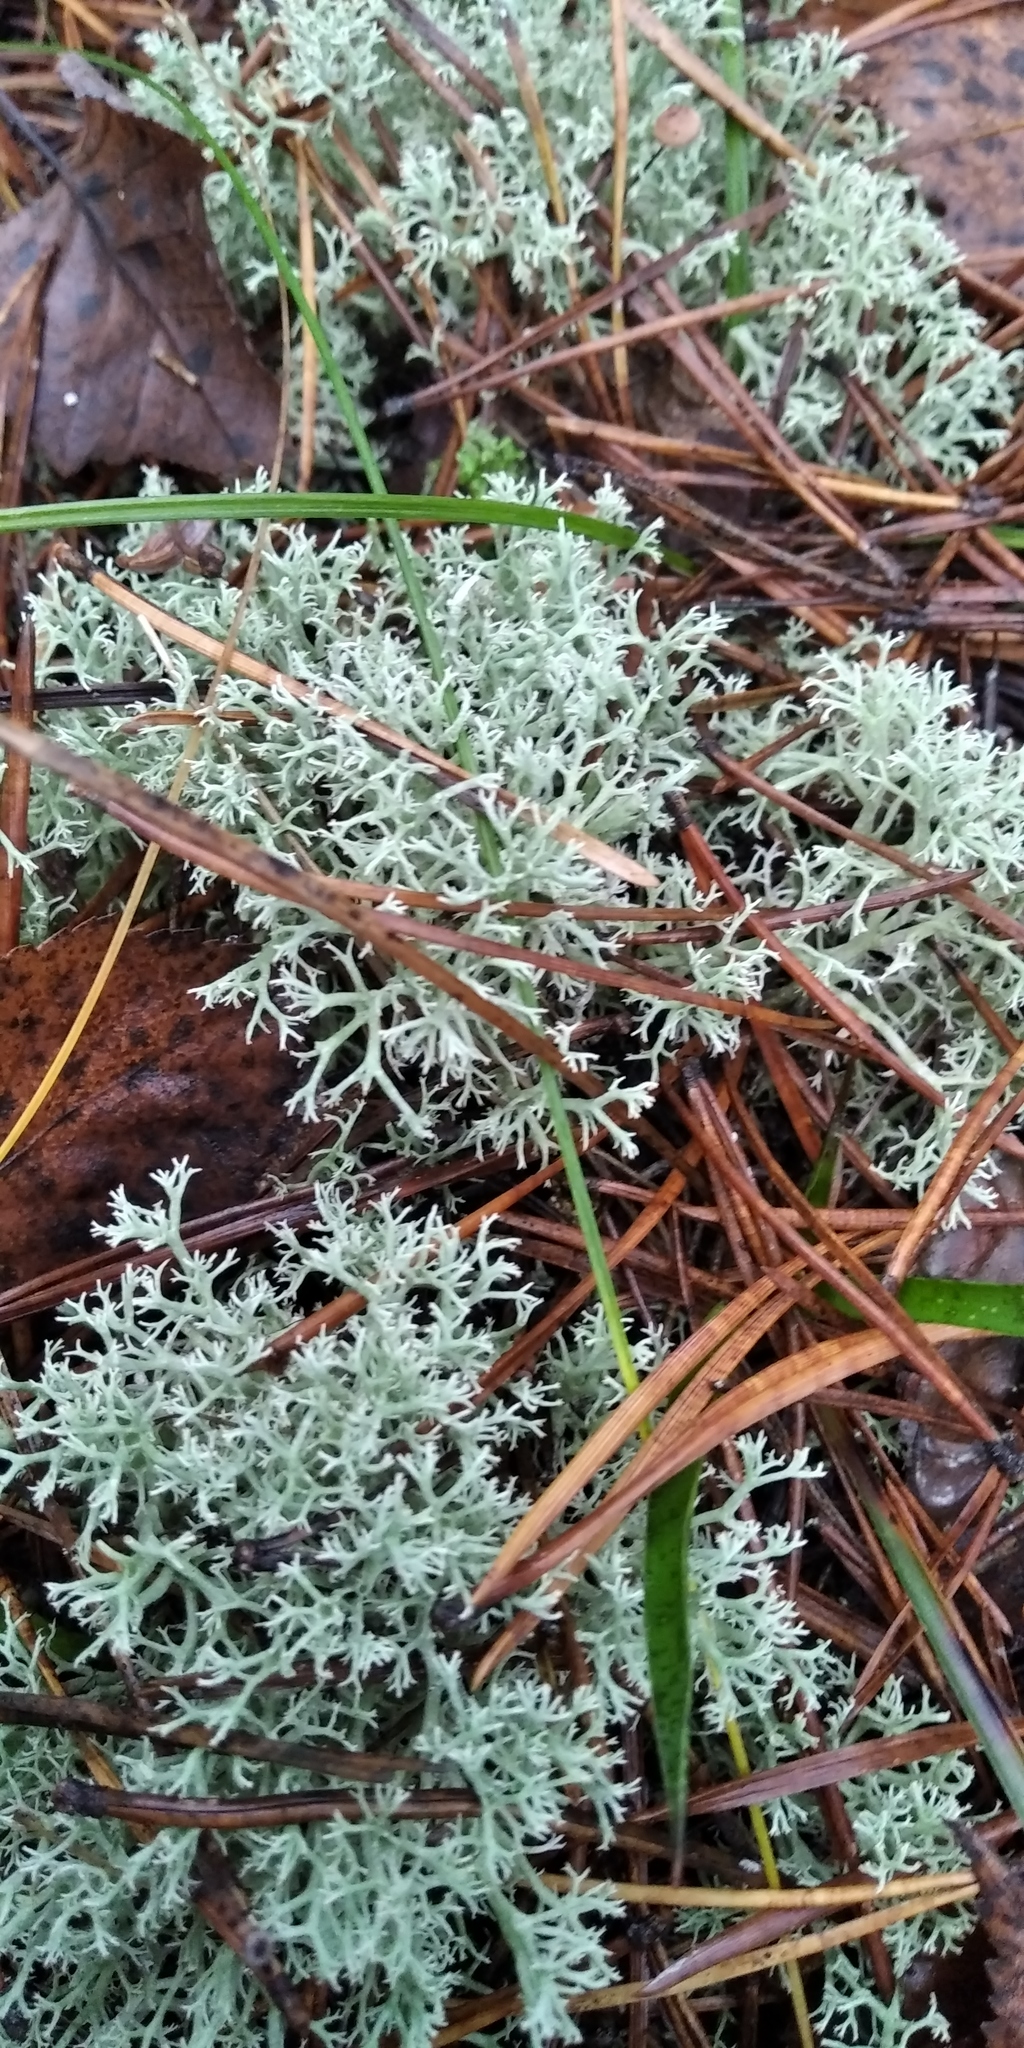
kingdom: Fungi
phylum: Ascomycota
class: Lecanoromycetes
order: Lecanorales
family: Cladoniaceae
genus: Cladonia
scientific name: Cladonia arbuscula
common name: Reindeer lichen
